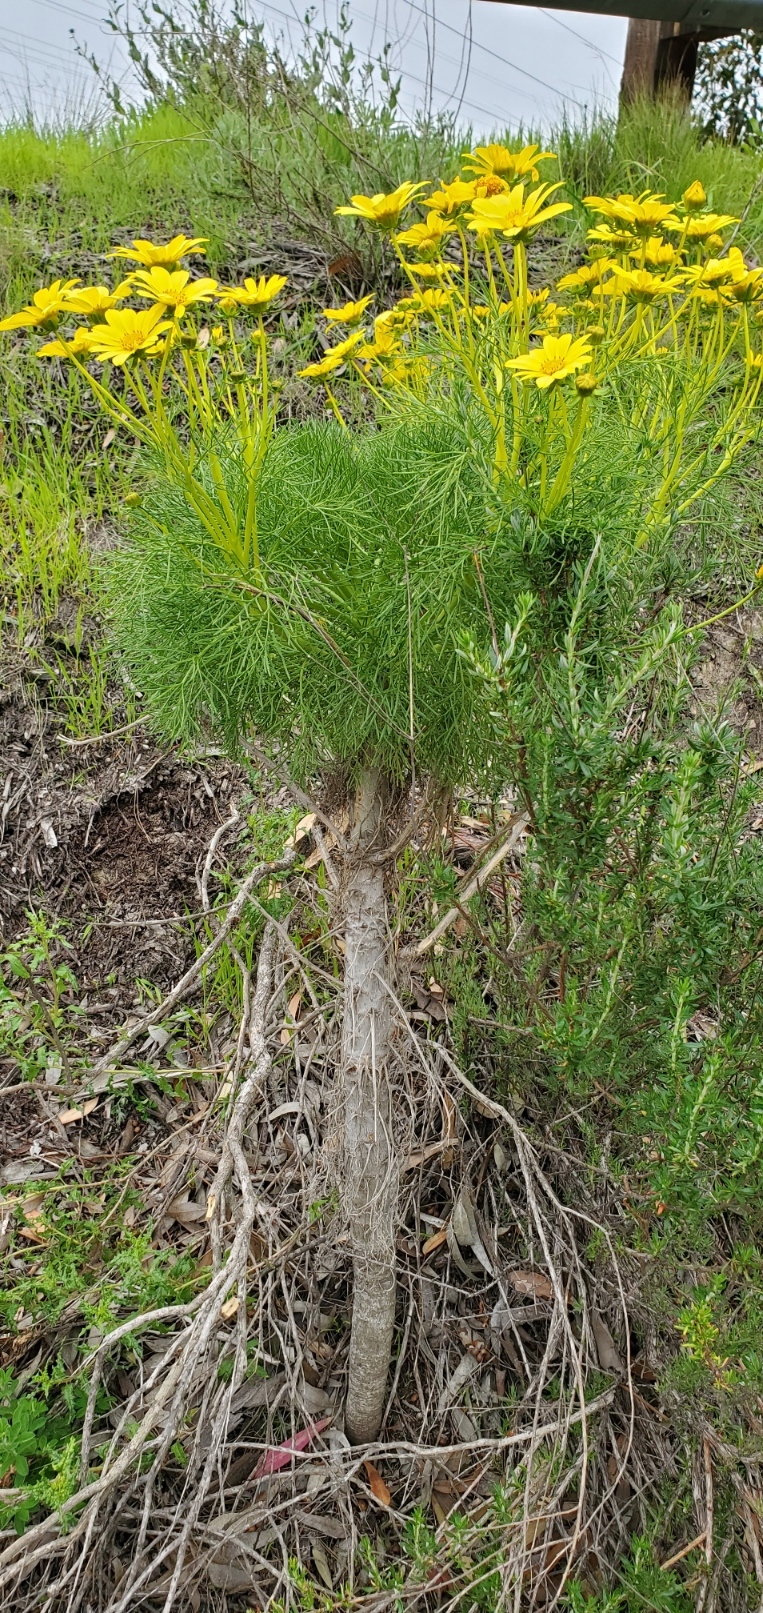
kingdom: Plantae
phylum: Tracheophyta
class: Magnoliopsida
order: Asterales
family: Asteraceae
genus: Coreopsis
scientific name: Coreopsis gigantea
